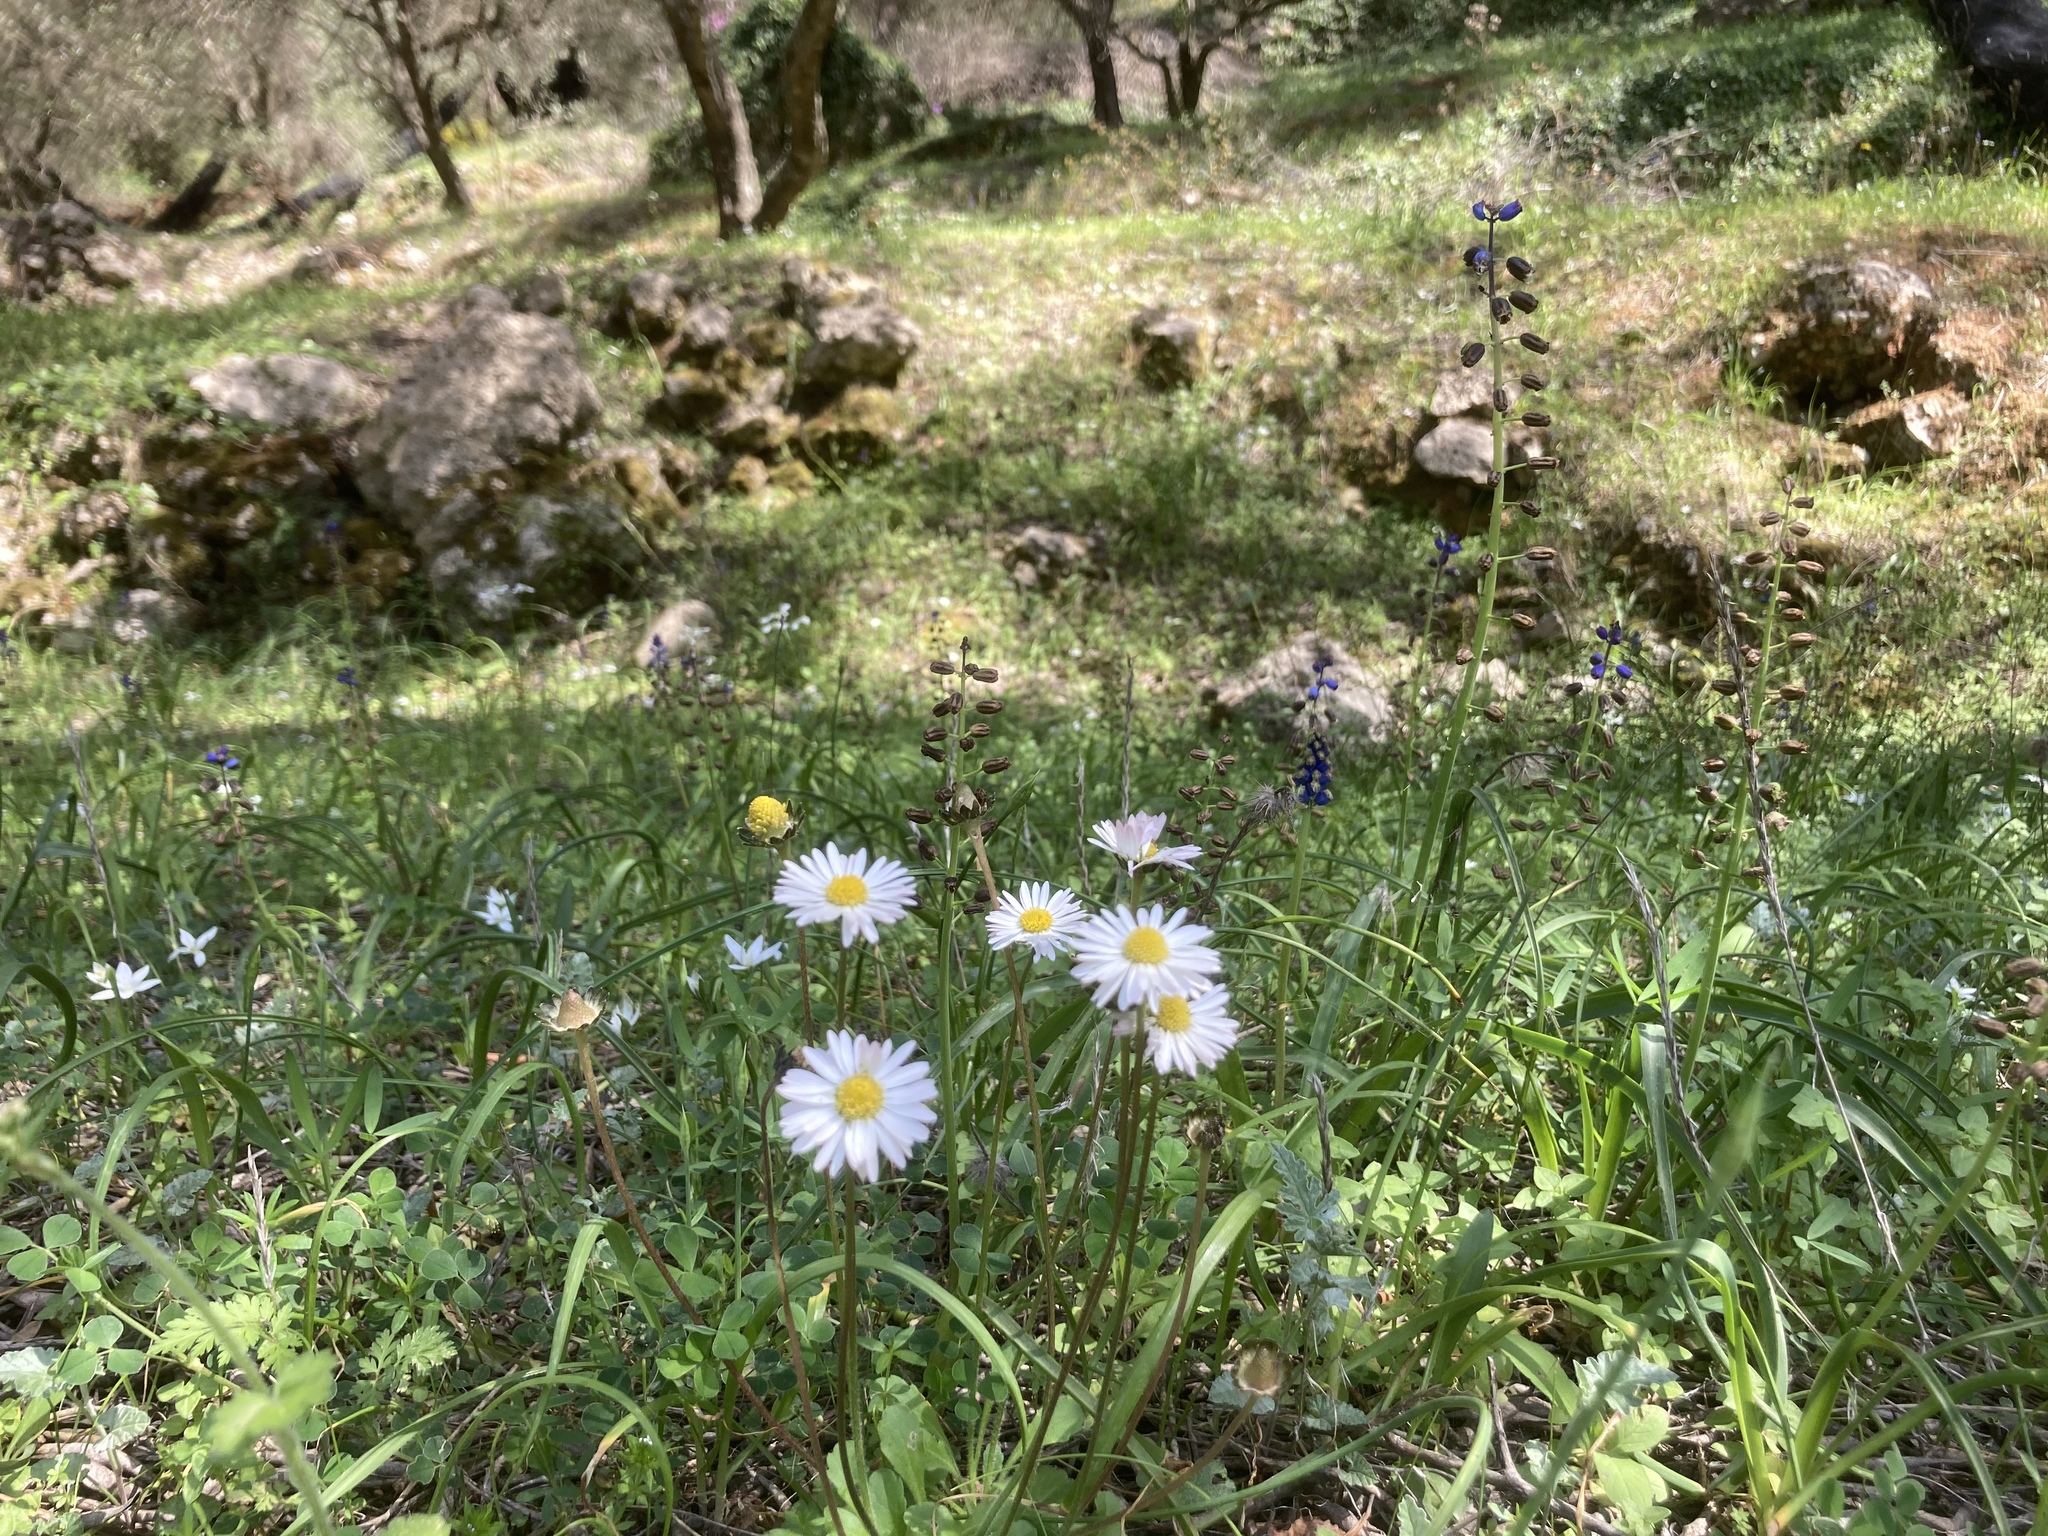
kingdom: Plantae
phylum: Tracheophyta
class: Liliopsida
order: Asparagales
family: Asparagaceae
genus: Bellevalia
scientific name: Bellevalia dubia
